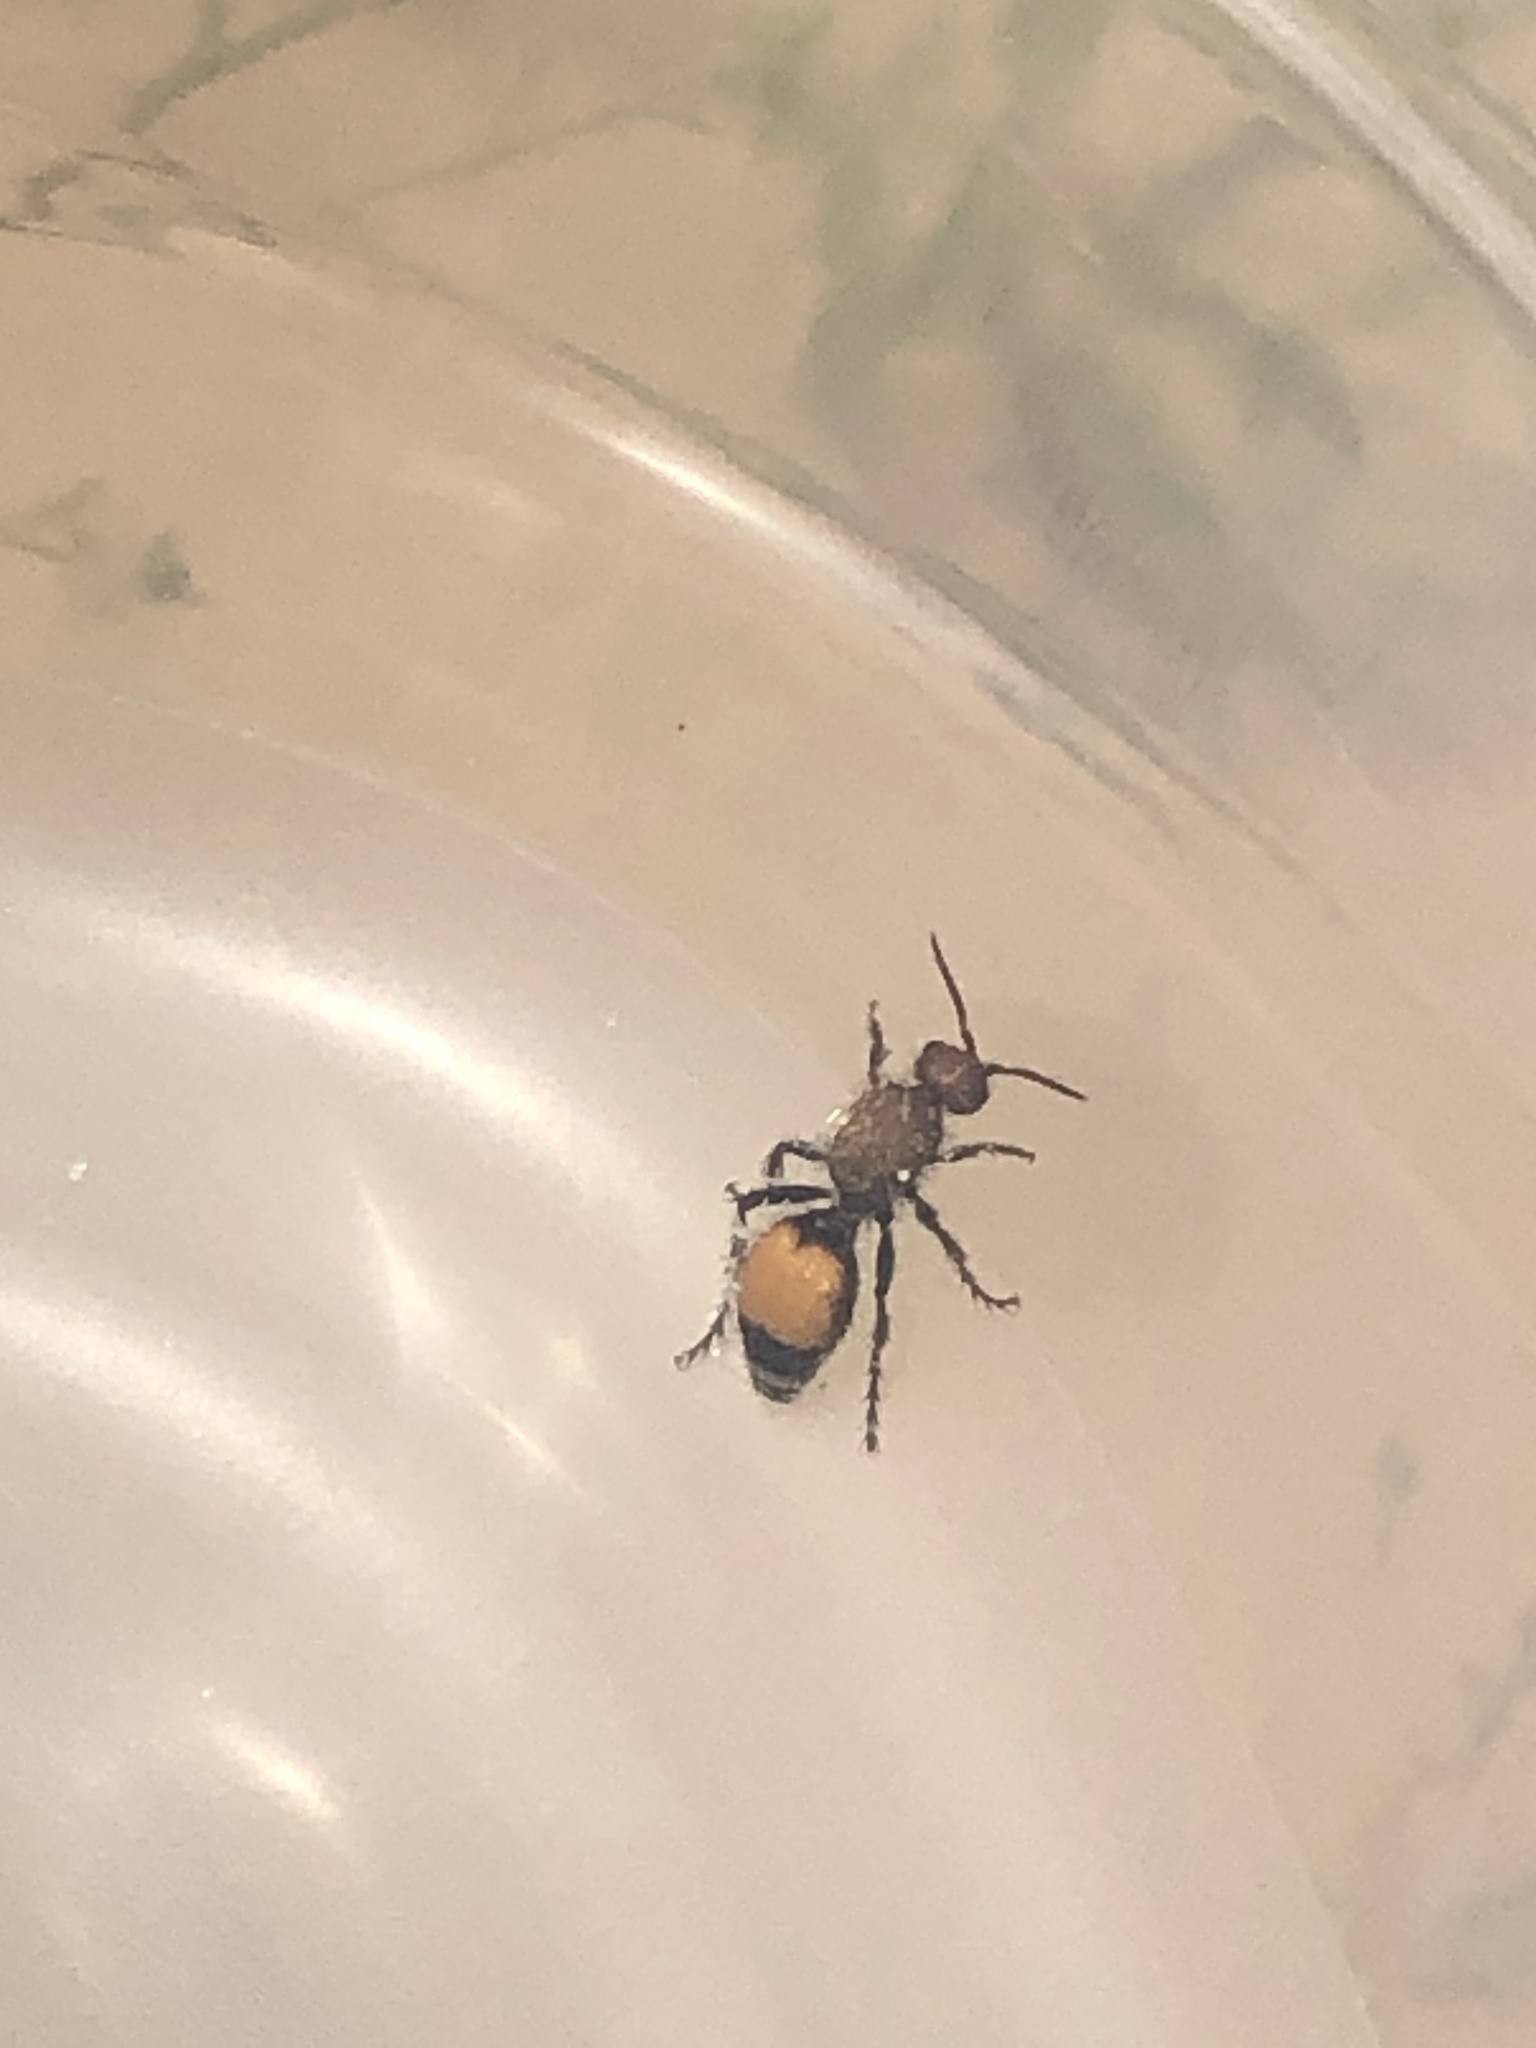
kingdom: Animalia
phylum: Arthropoda
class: Insecta
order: Hymenoptera
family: Mutillidae
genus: Dasymutilla
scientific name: Dasymutilla
